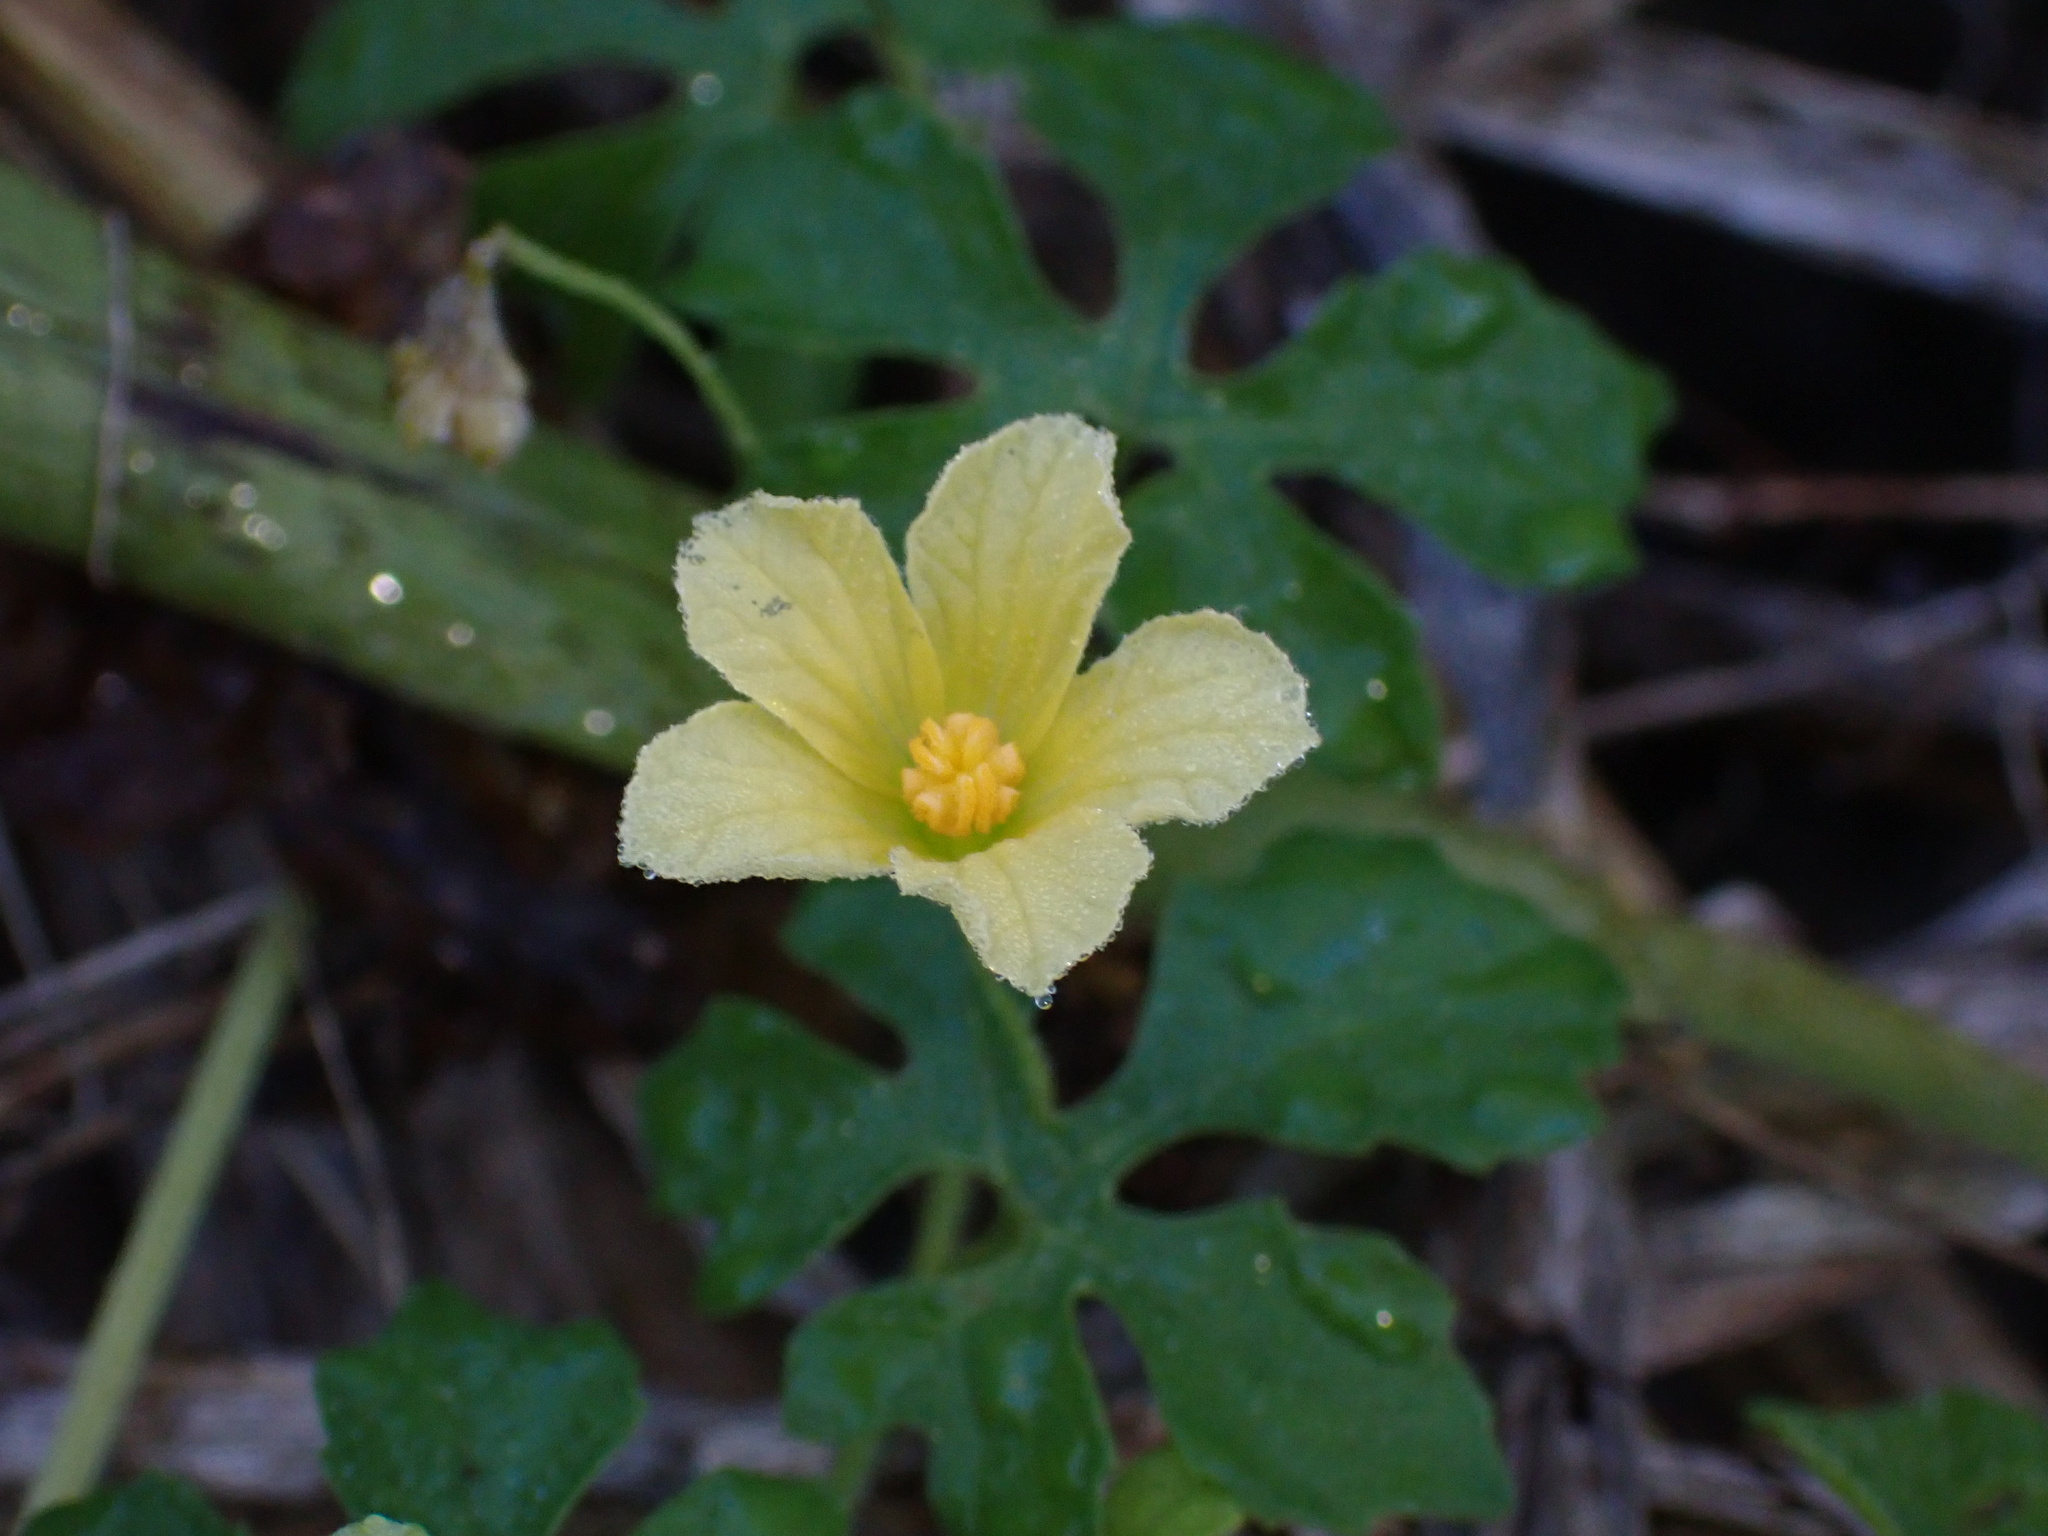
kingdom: Plantae
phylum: Tracheophyta
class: Magnoliopsida
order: Cucurbitales
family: Cucurbitaceae
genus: Momordica
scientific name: Momordica charantia
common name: Balsampear
